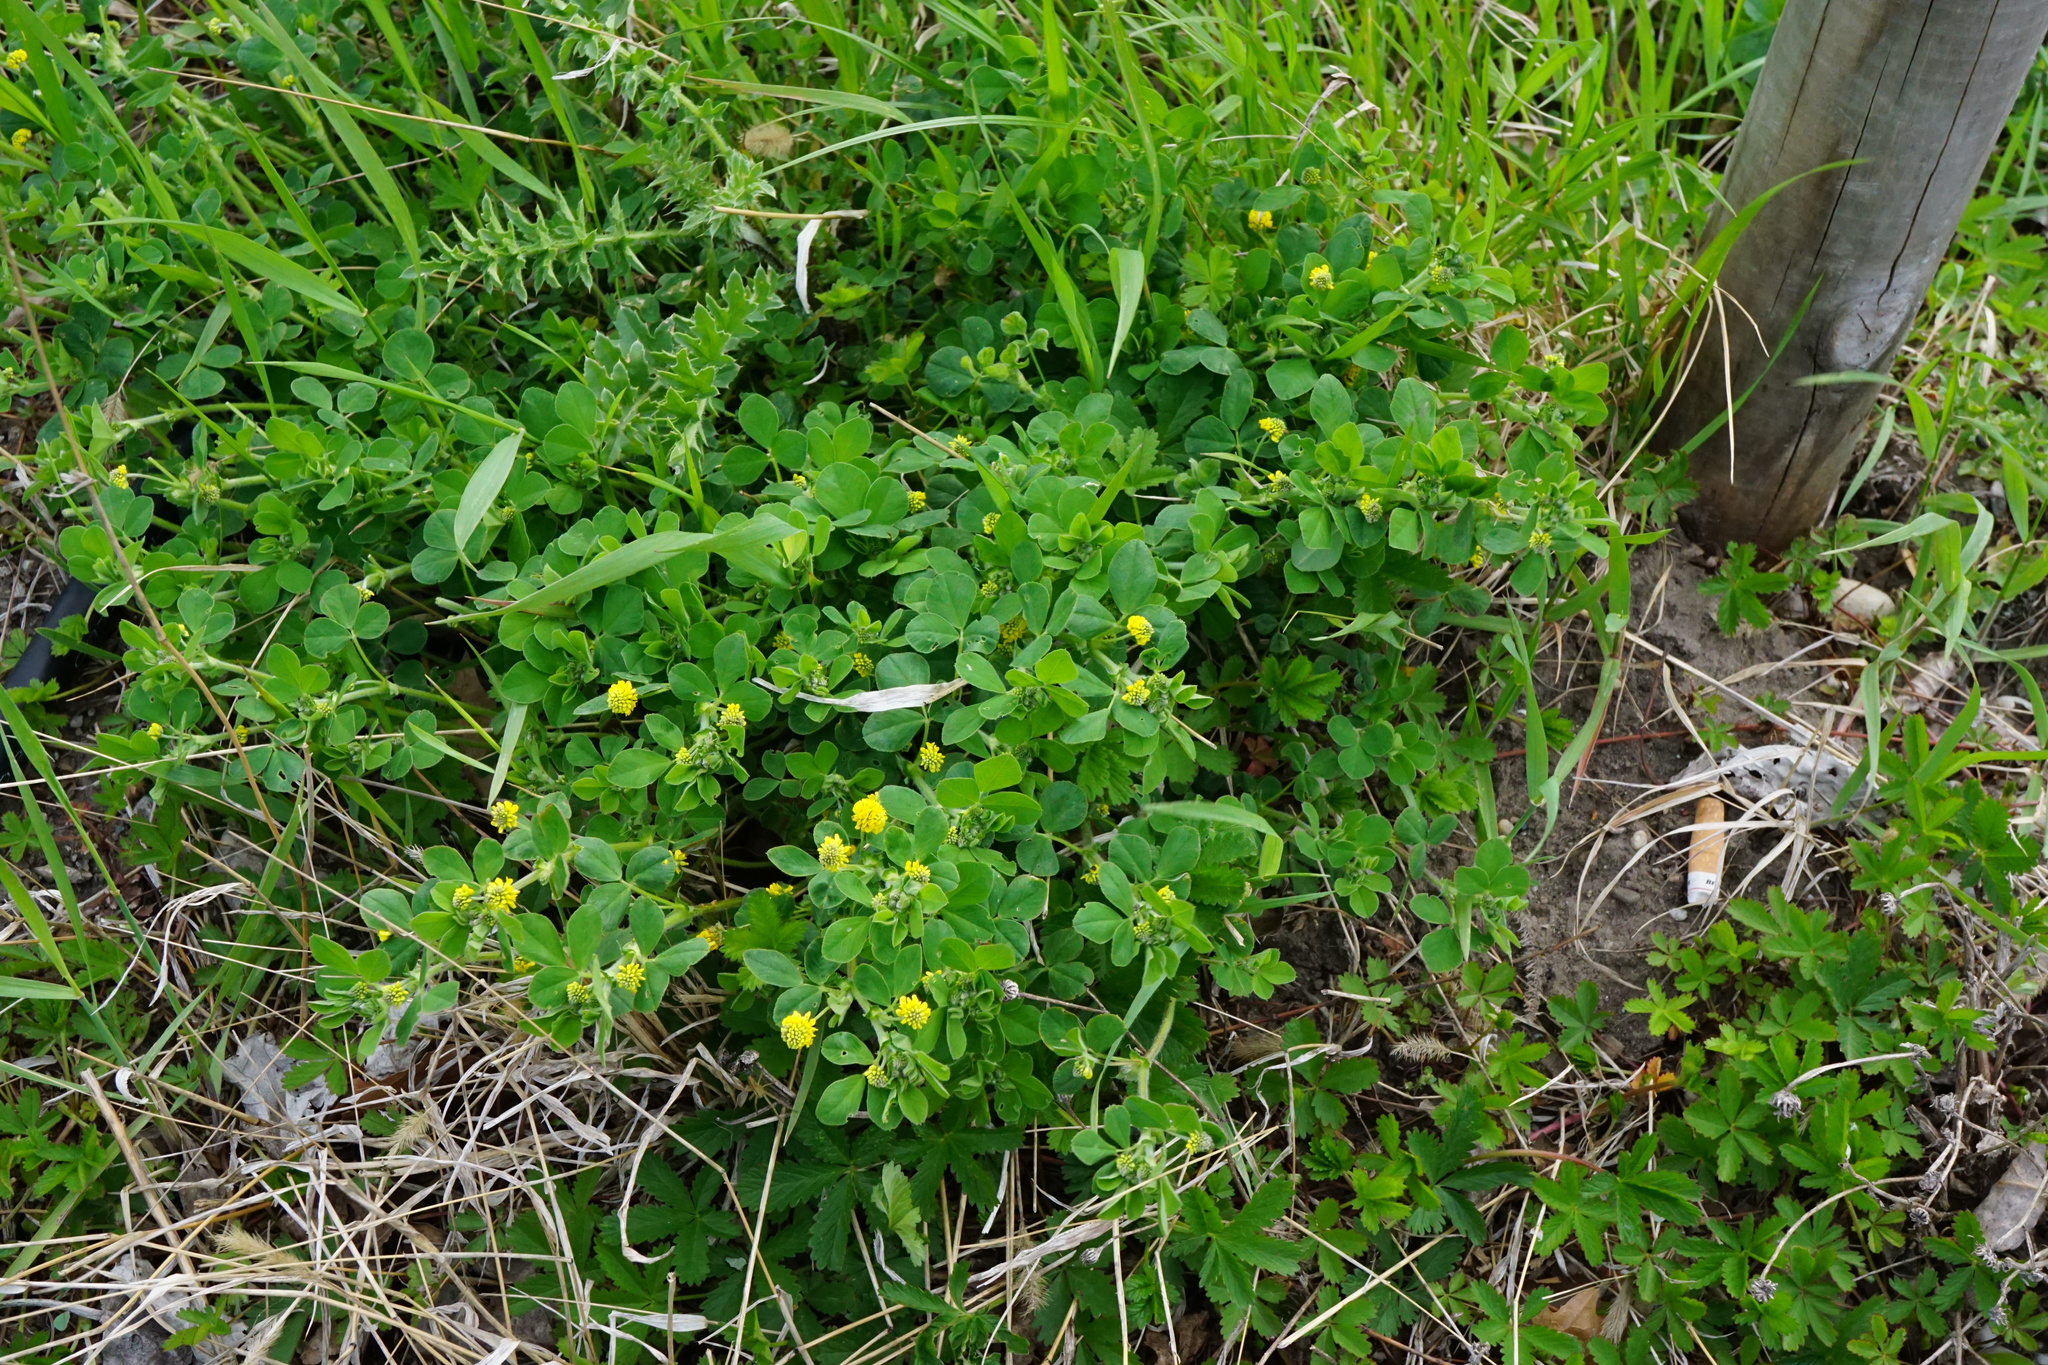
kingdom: Plantae
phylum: Tracheophyta
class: Magnoliopsida
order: Fabales
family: Fabaceae
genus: Medicago
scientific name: Medicago lupulina
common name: Black medick
